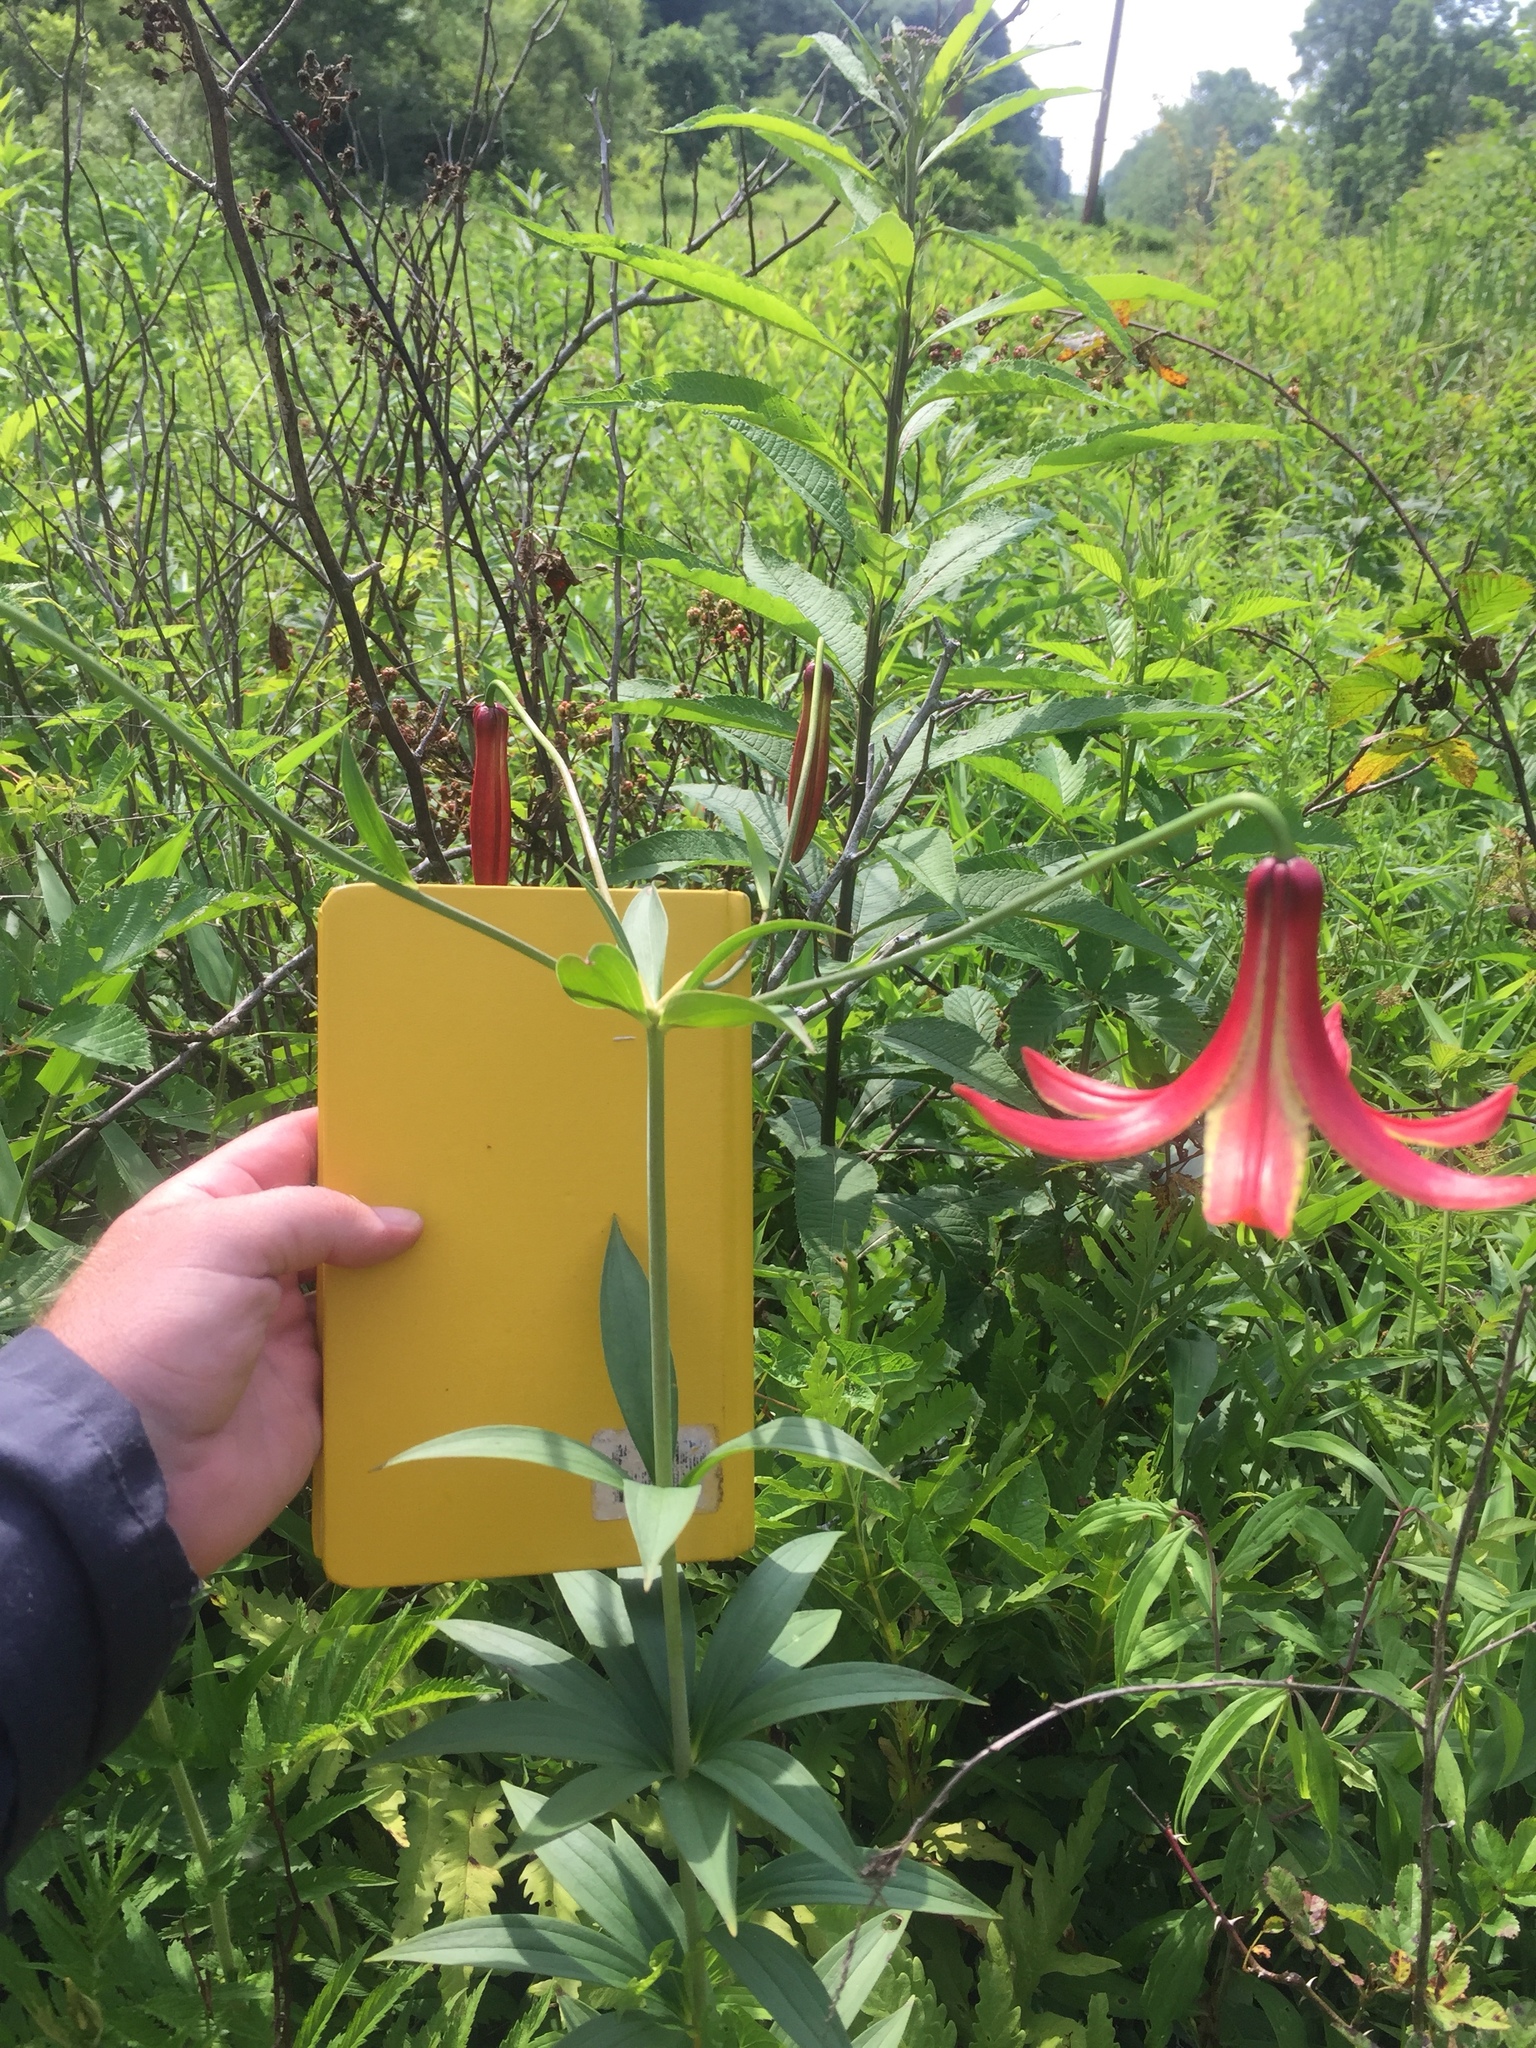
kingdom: Plantae
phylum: Tracheophyta
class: Liliopsida
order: Liliales
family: Liliaceae
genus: Lilium
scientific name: Lilium canadense
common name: Canada lily
